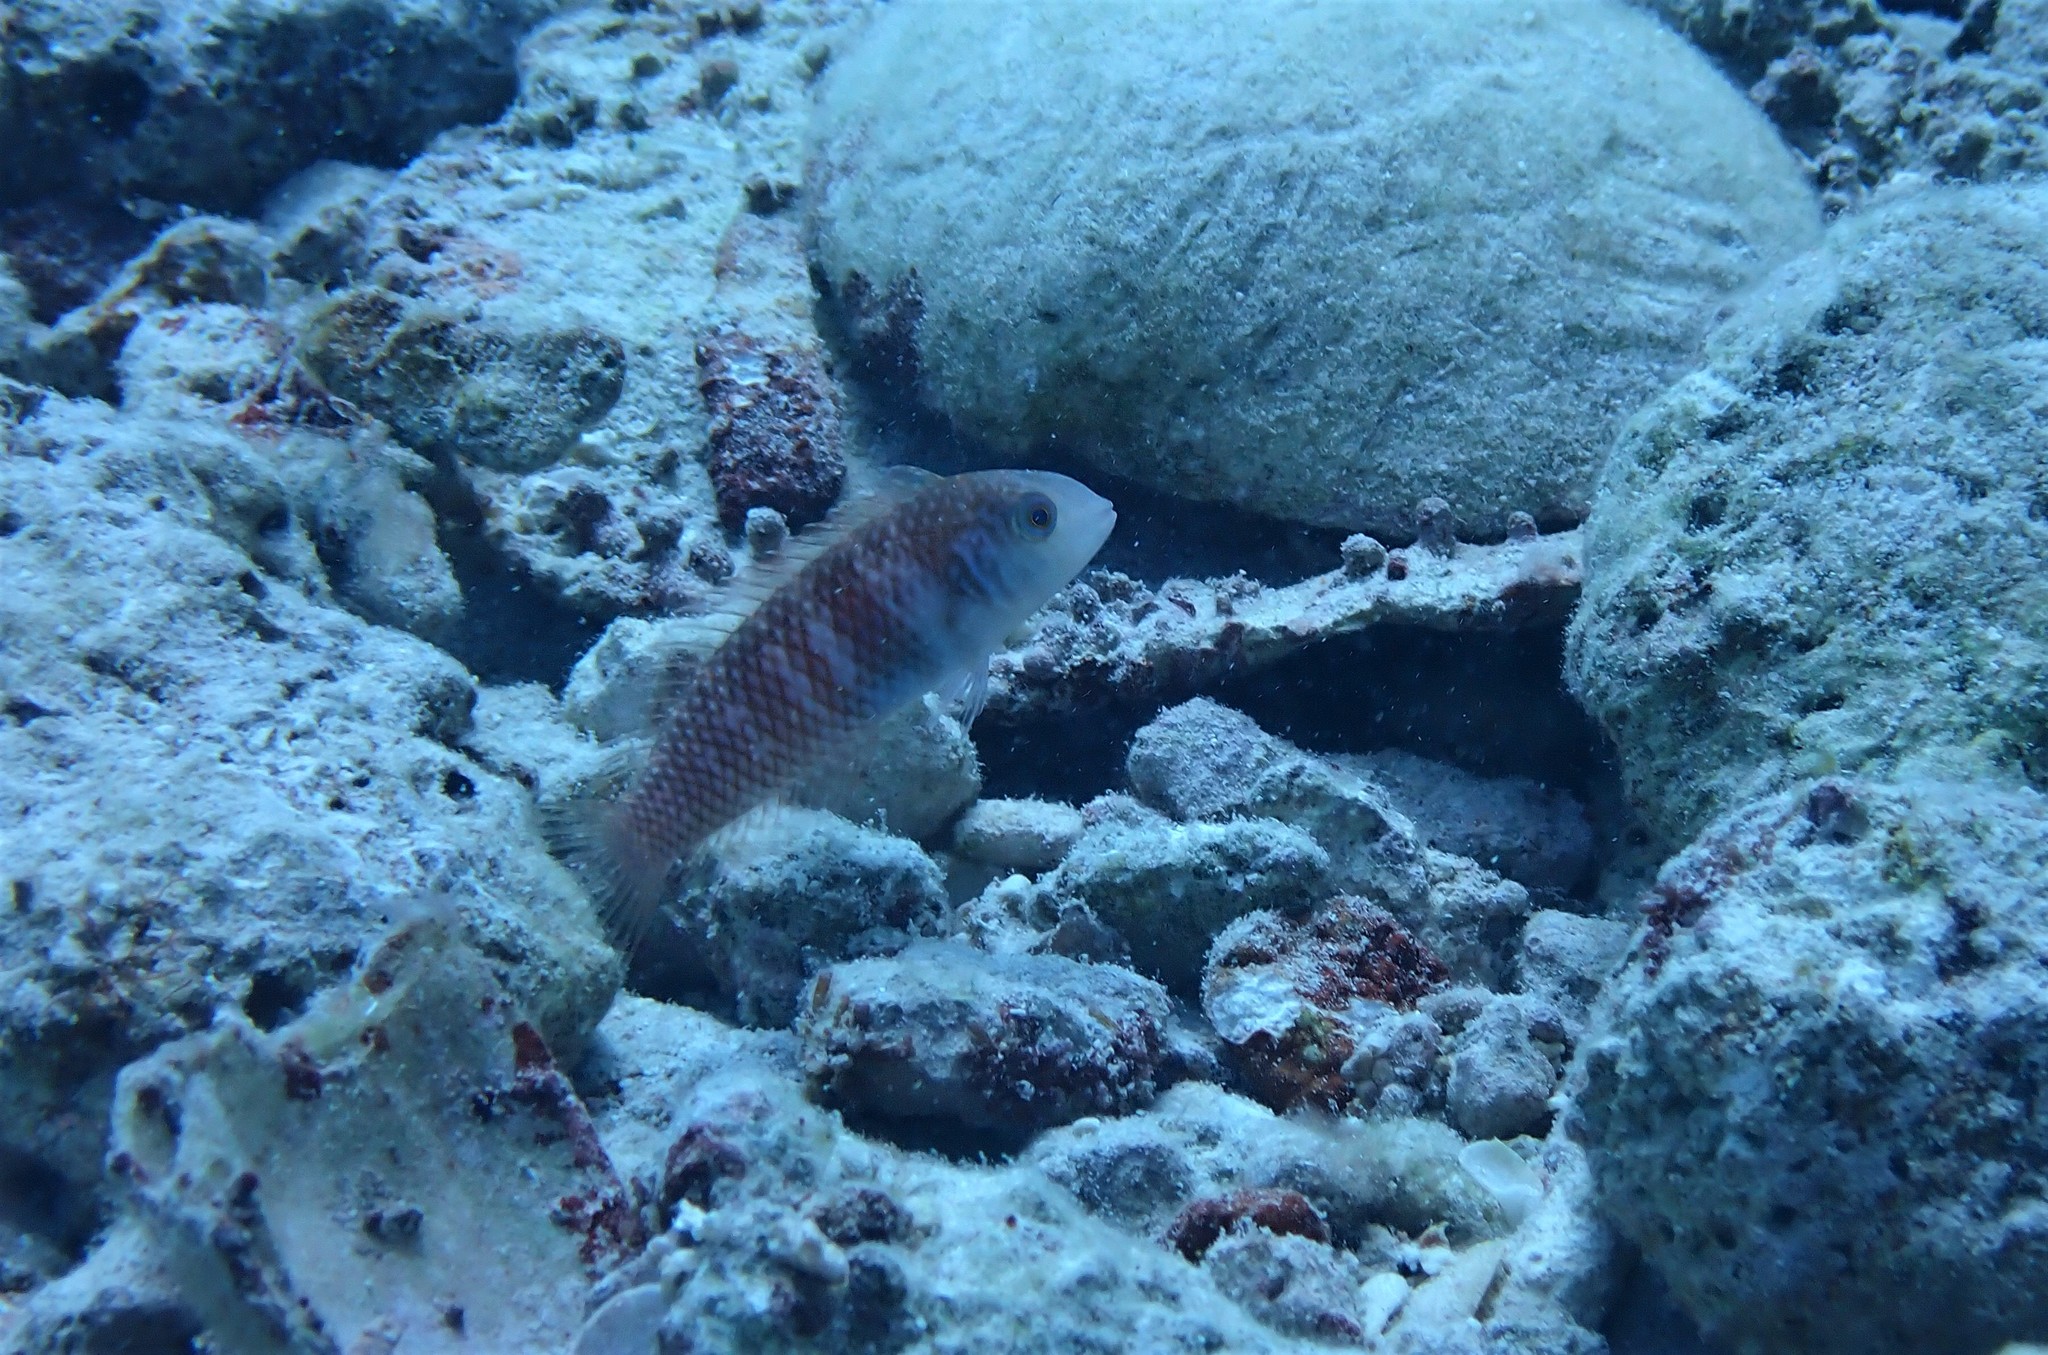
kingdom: Animalia
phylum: Chordata
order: Perciformes
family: Labridae
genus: Xyrichtys
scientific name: Xyrichtys splendens
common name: Green razorfish
